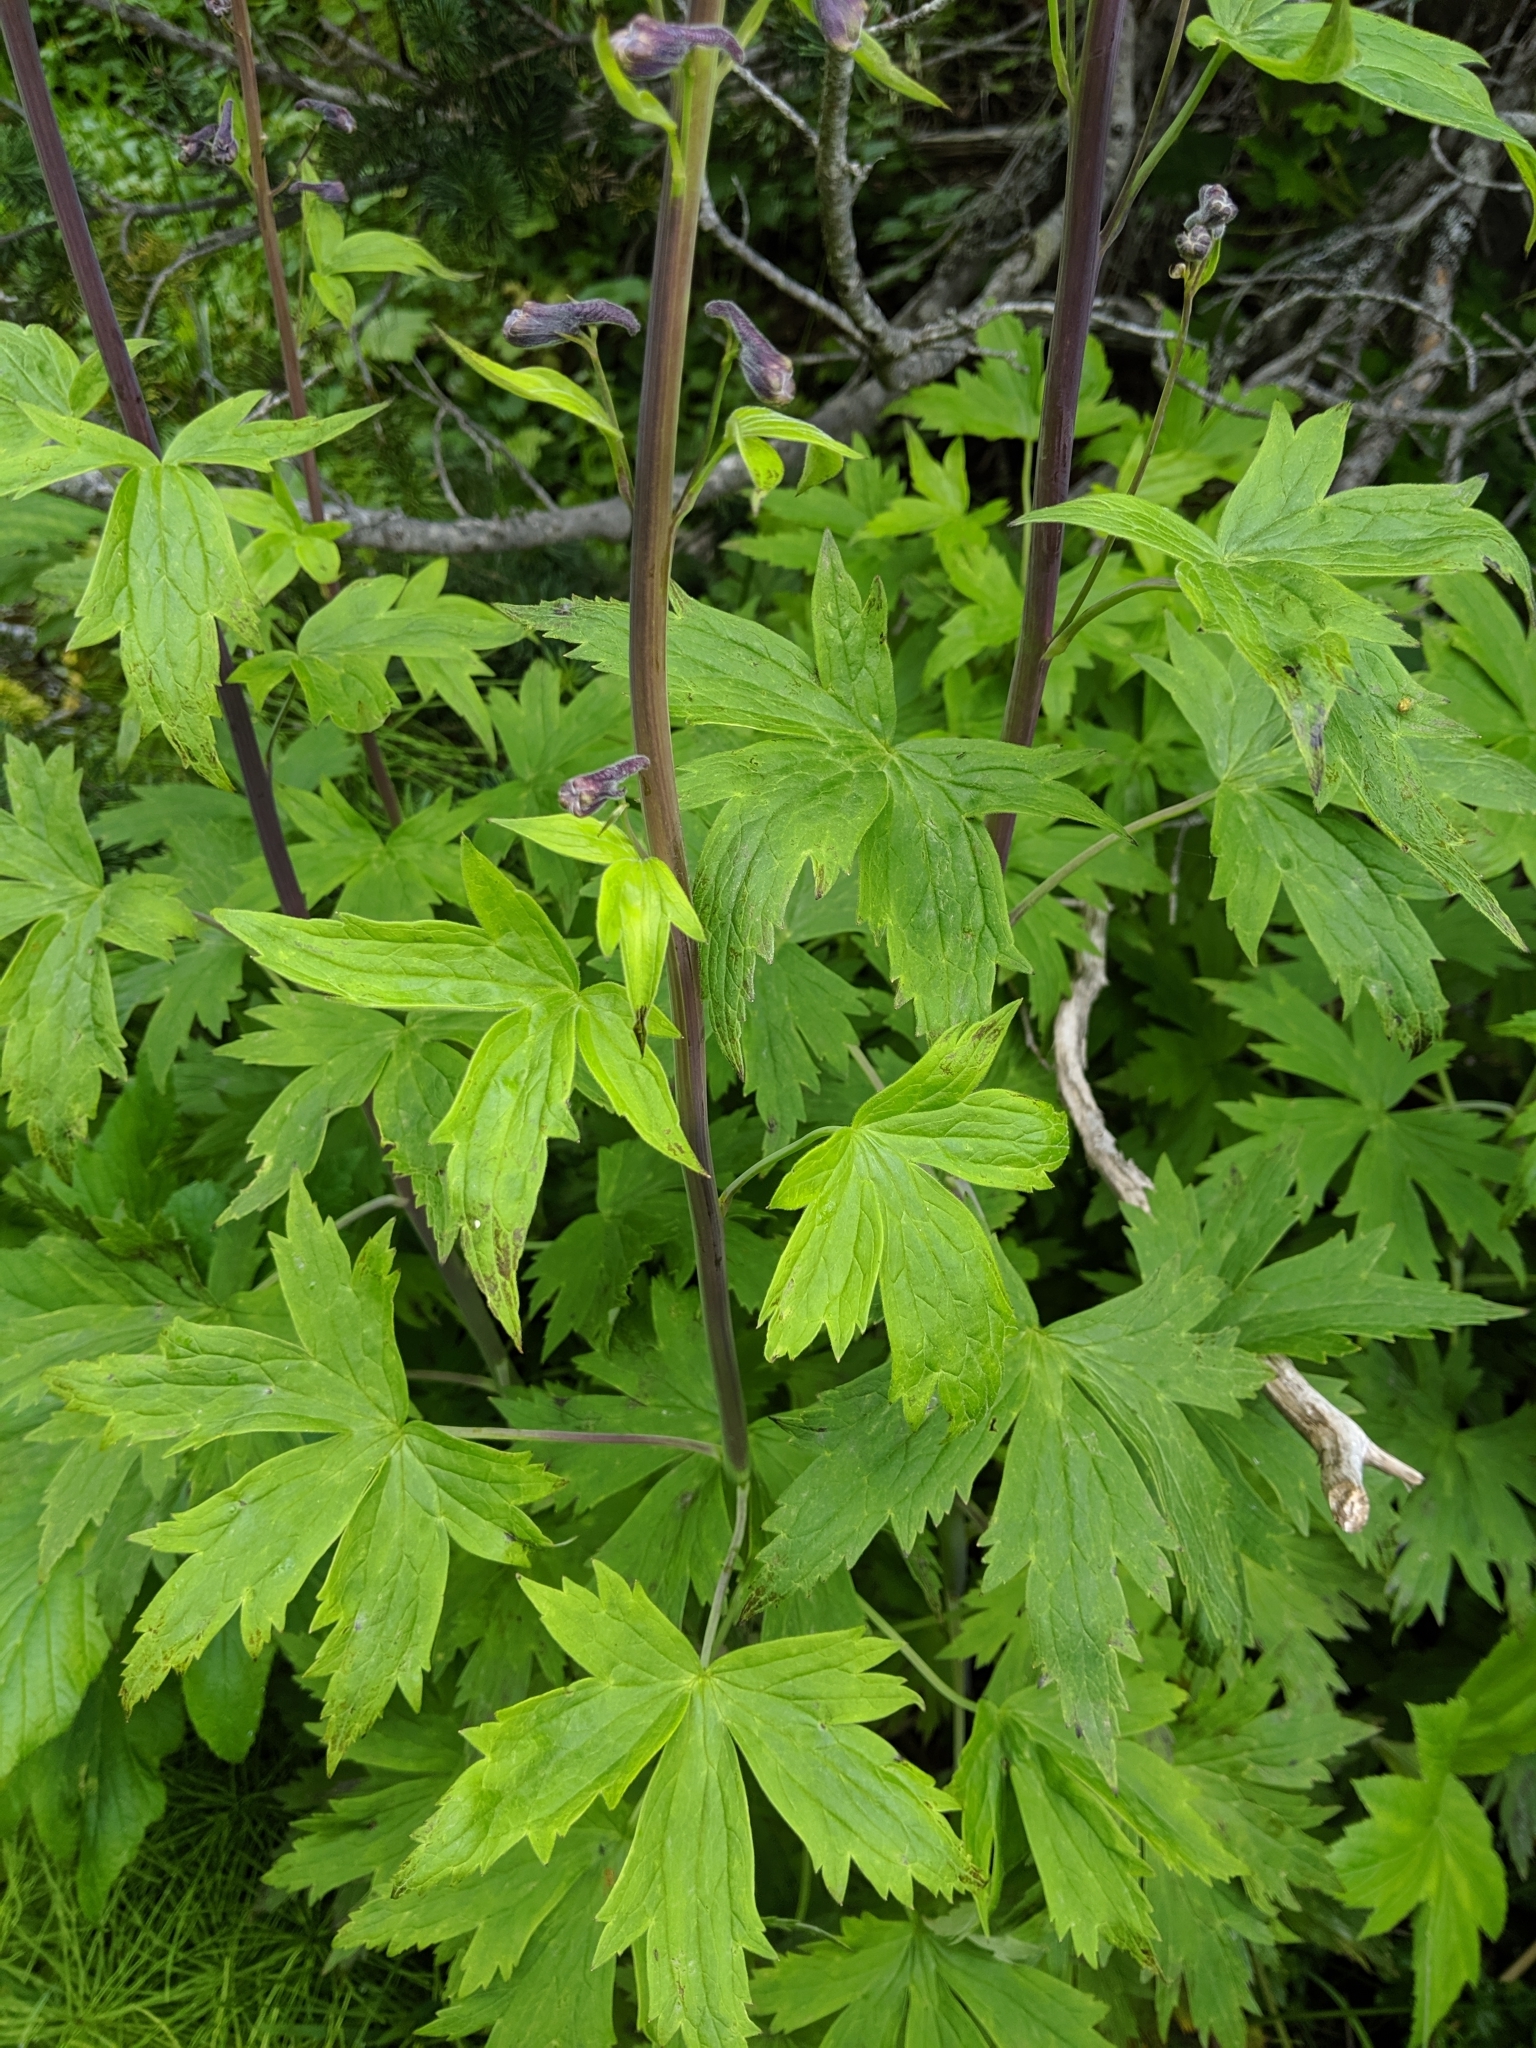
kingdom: Plantae
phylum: Tracheophyta
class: Magnoliopsida
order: Ranunculales
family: Ranunculaceae
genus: Delphinium
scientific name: Delphinium glaucum
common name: Brown's larkspur
